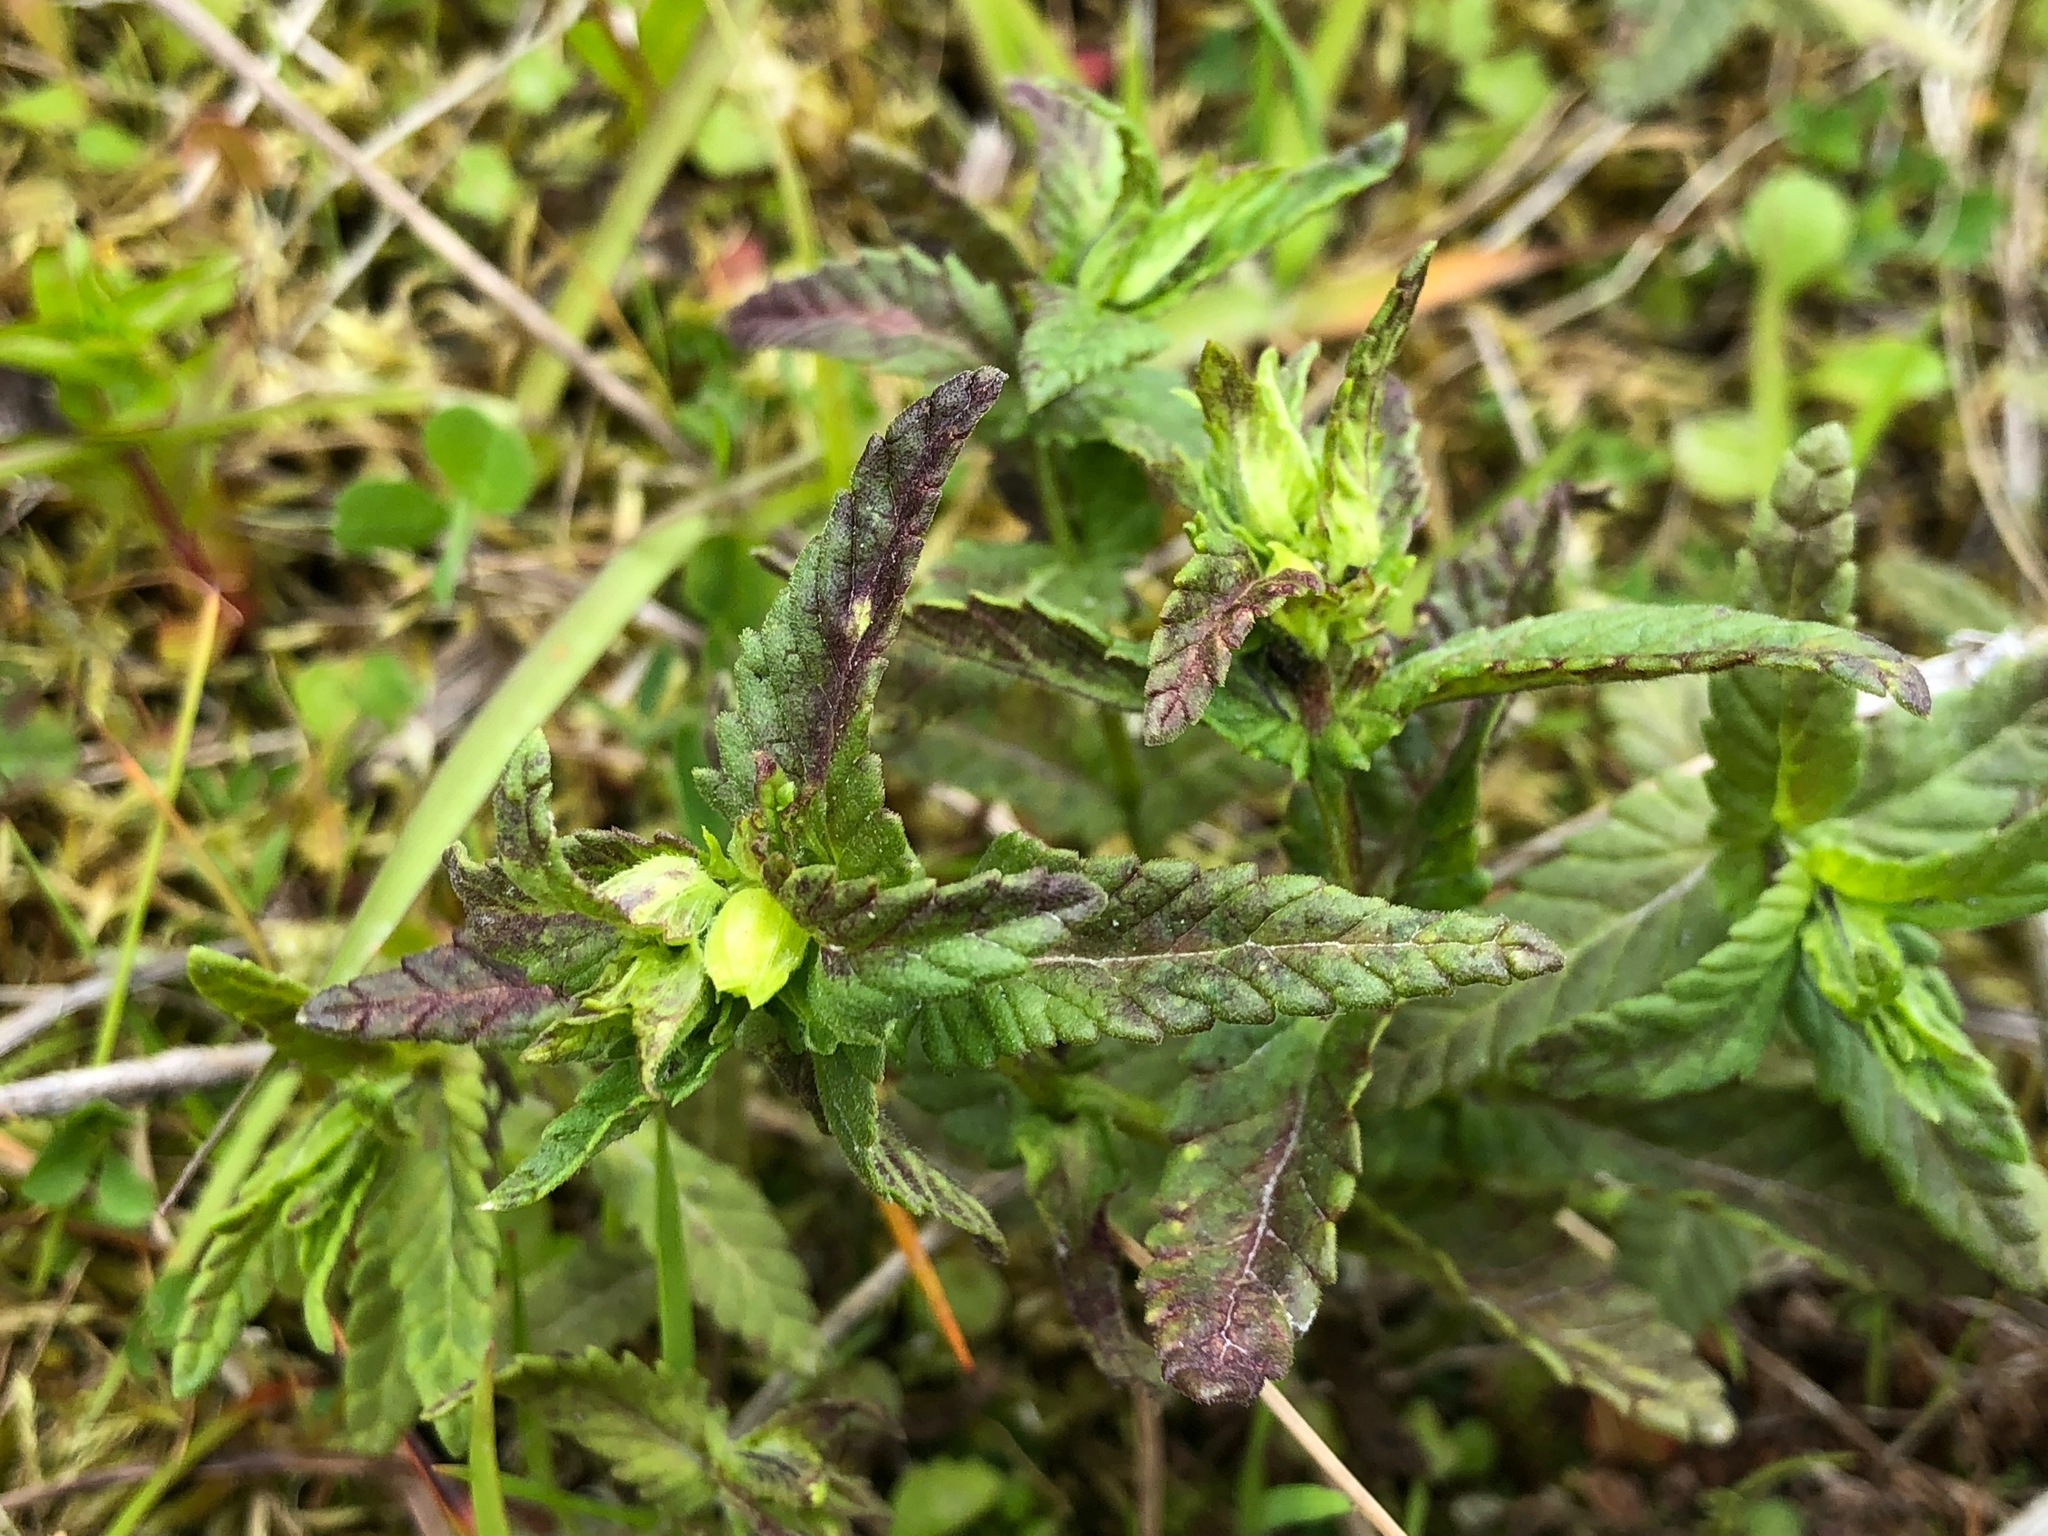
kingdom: Plantae
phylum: Tracheophyta
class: Magnoliopsida
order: Lamiales
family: Orobanchaceae
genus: Rhinanthus
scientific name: Rhinanthus minor
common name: Yellow-rattle
